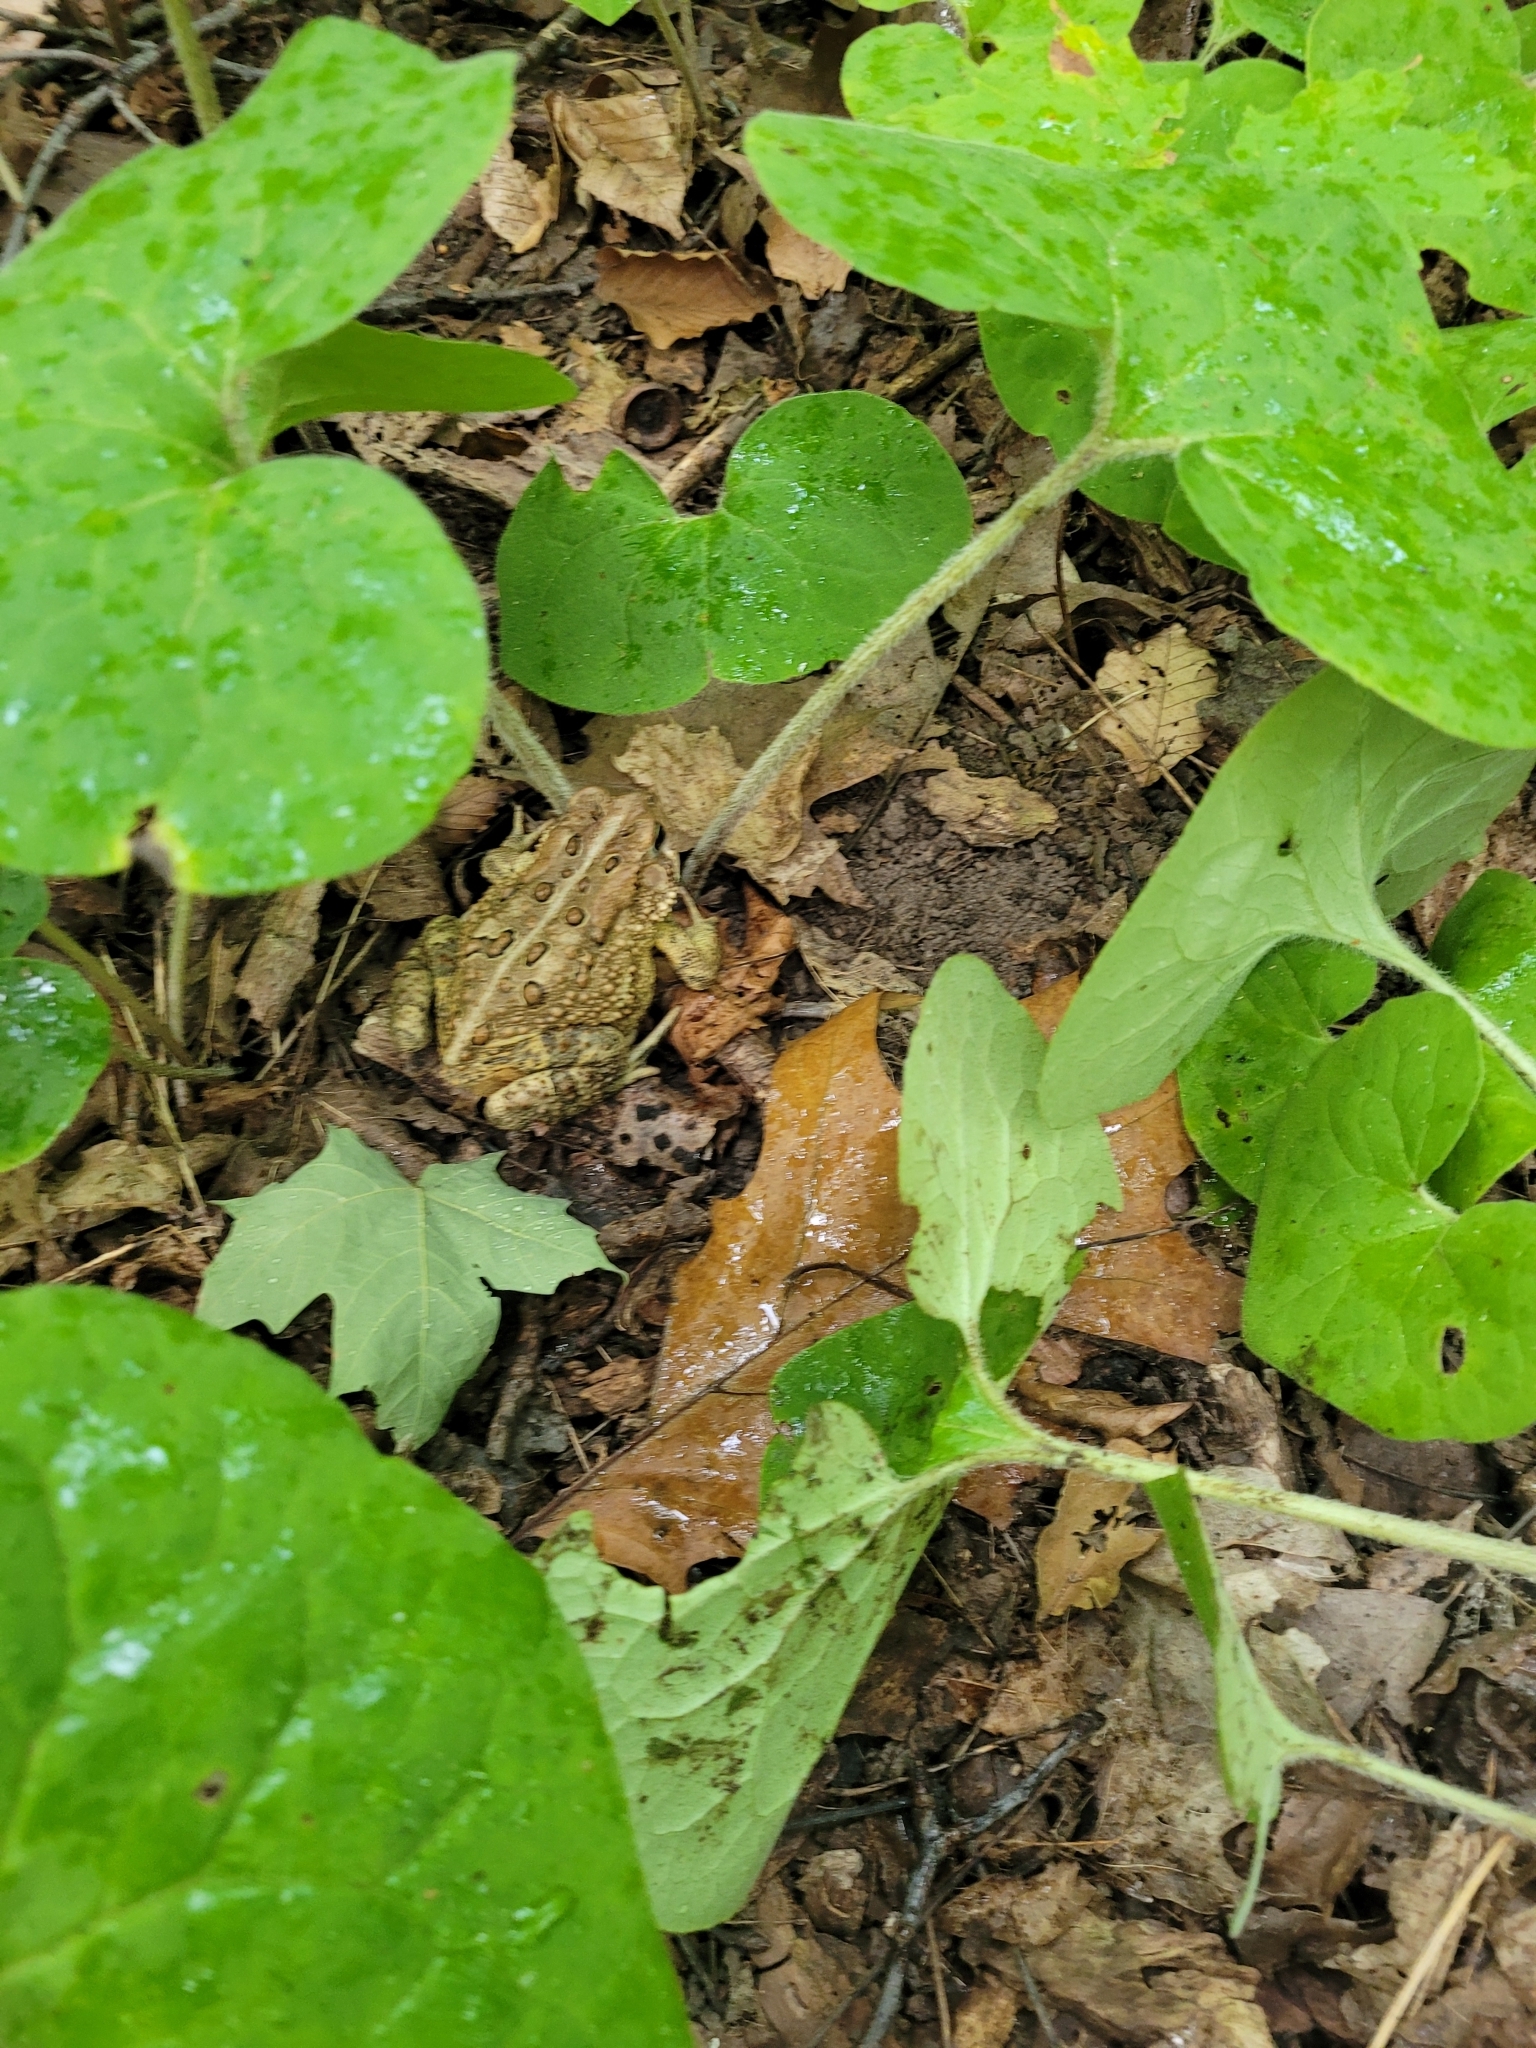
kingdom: Animalia
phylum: Chordata
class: Amphibia
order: Anura
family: Bufonidae
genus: Anaxyrus
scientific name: Anaxyrus americanus
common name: American toad
